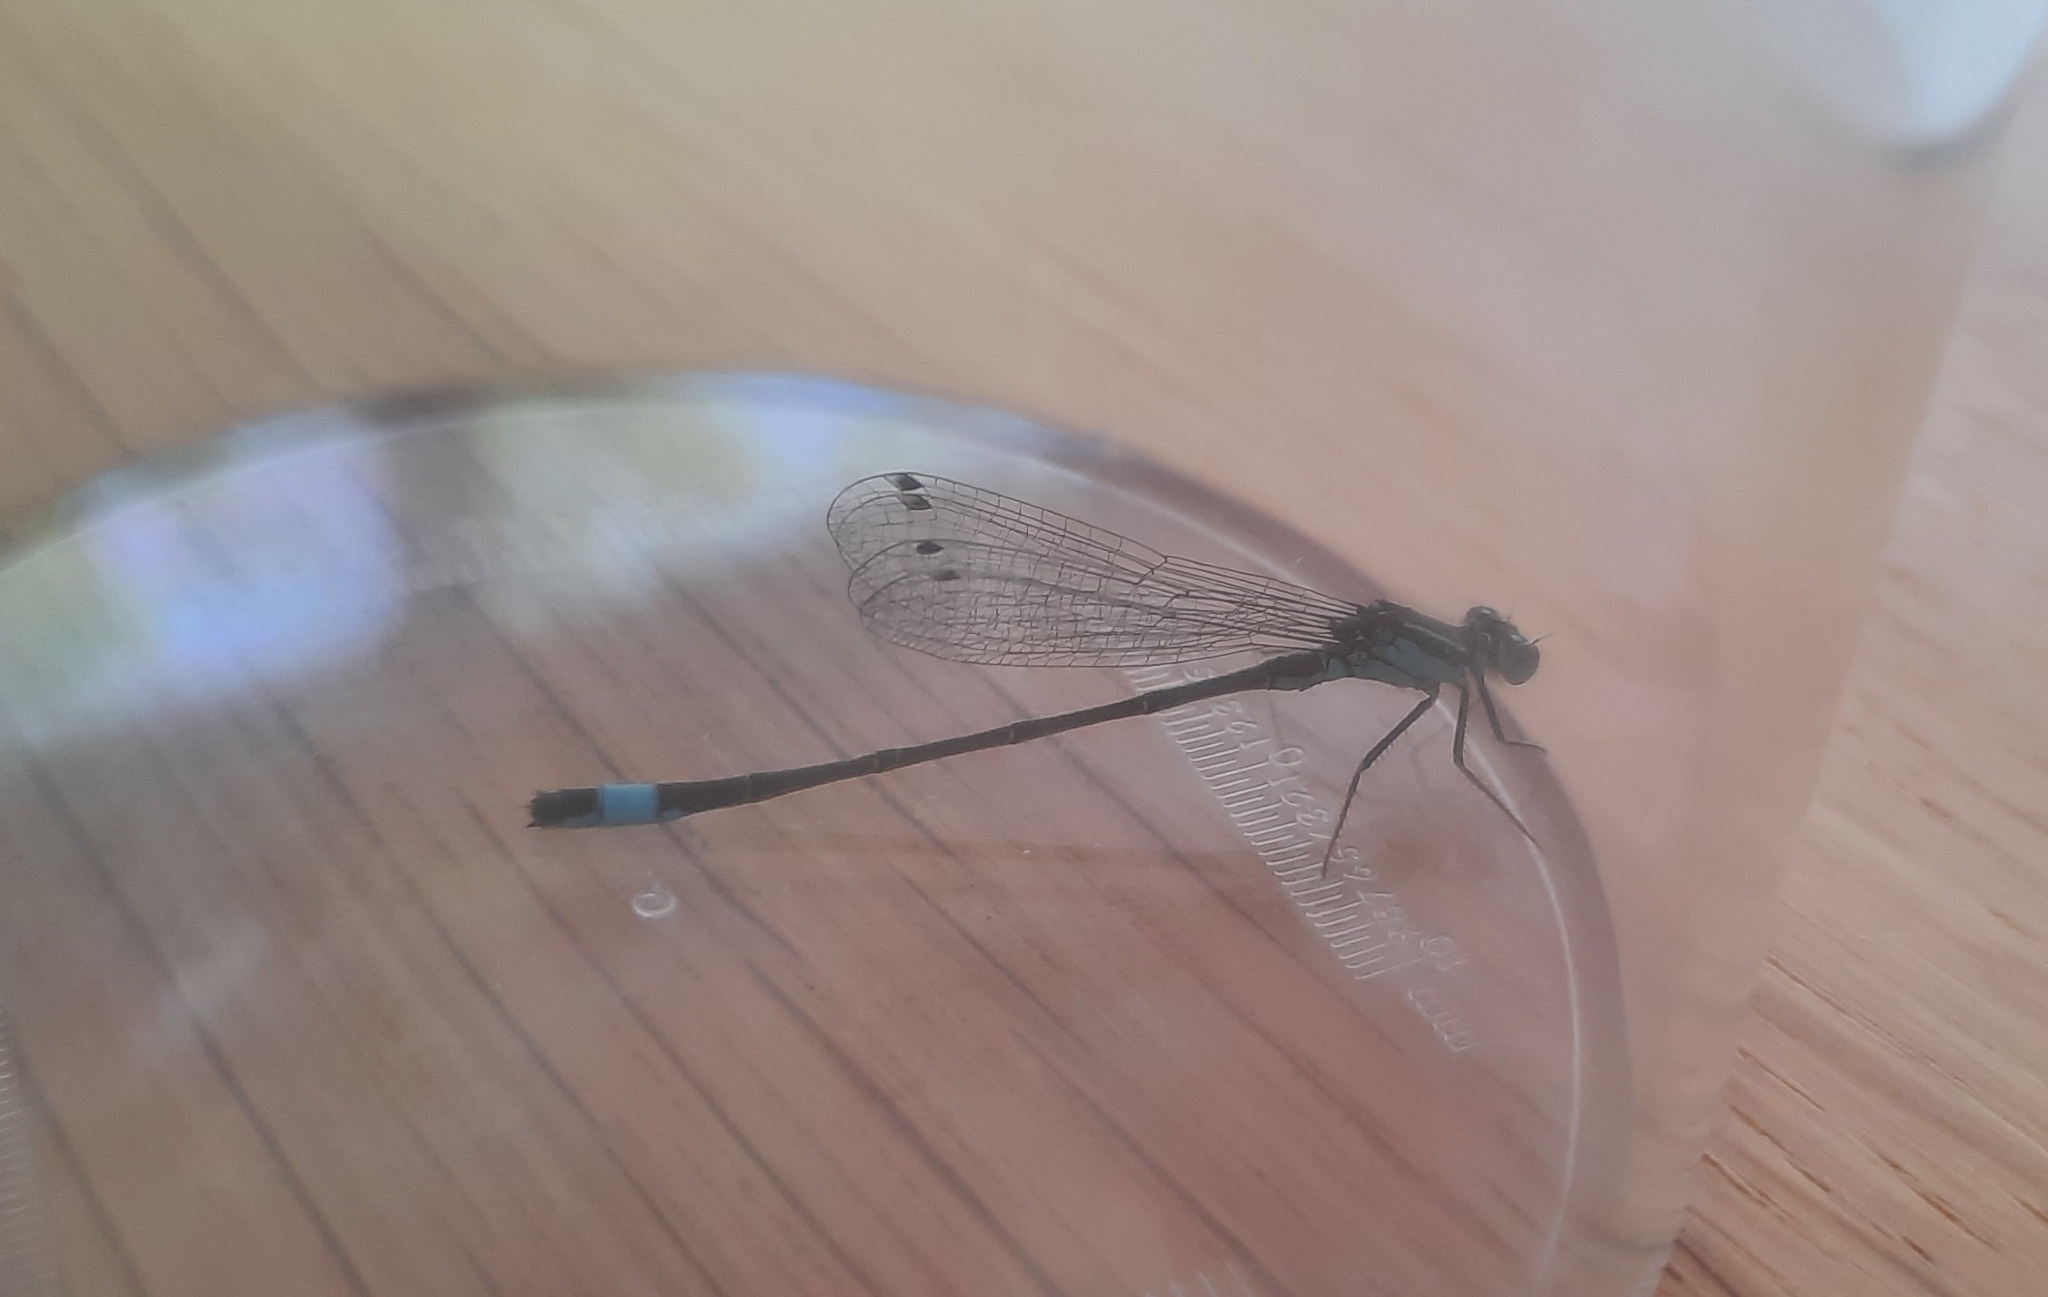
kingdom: Animalia
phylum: Arthropoda
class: Insecta
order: Odonata
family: Coenagrionidae
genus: Ischnura
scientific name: Ischnura elegans
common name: Blue-tailed damselfly
